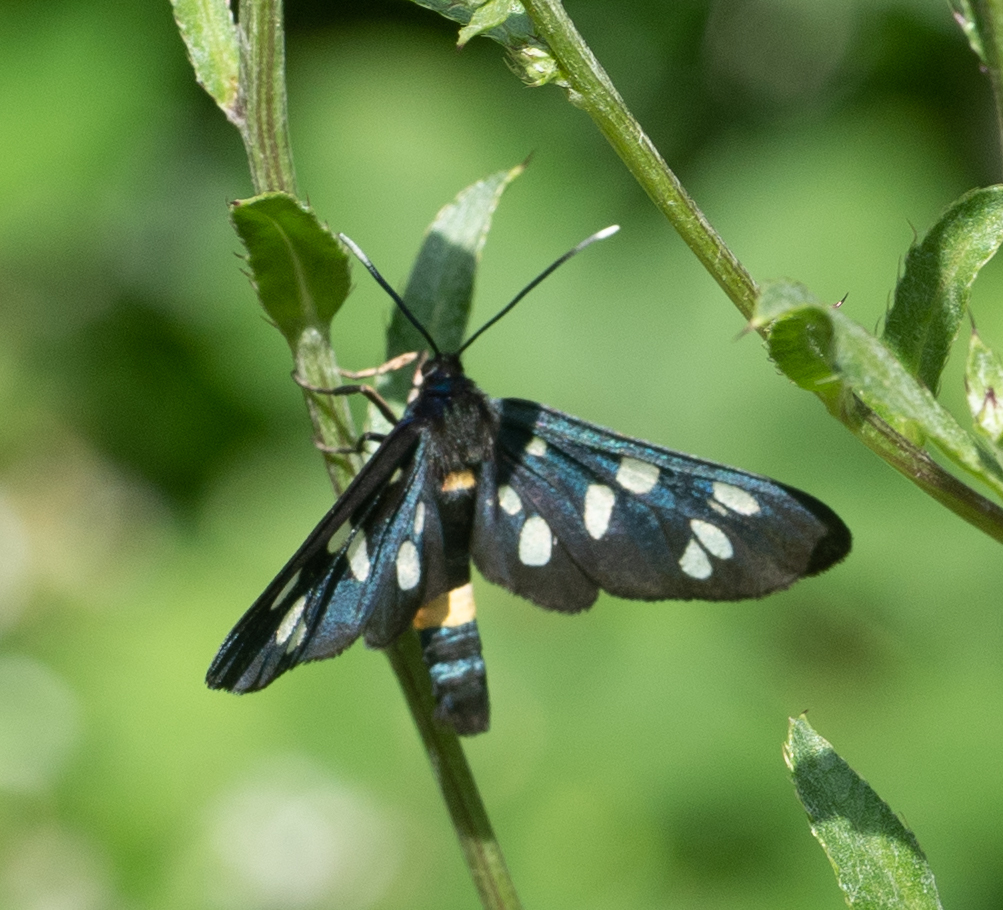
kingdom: Animalia
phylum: Arthropoda
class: Insecta
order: Lepidoptera
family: Erebidae
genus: Amata
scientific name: Amata phegea
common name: Nine-spotted
